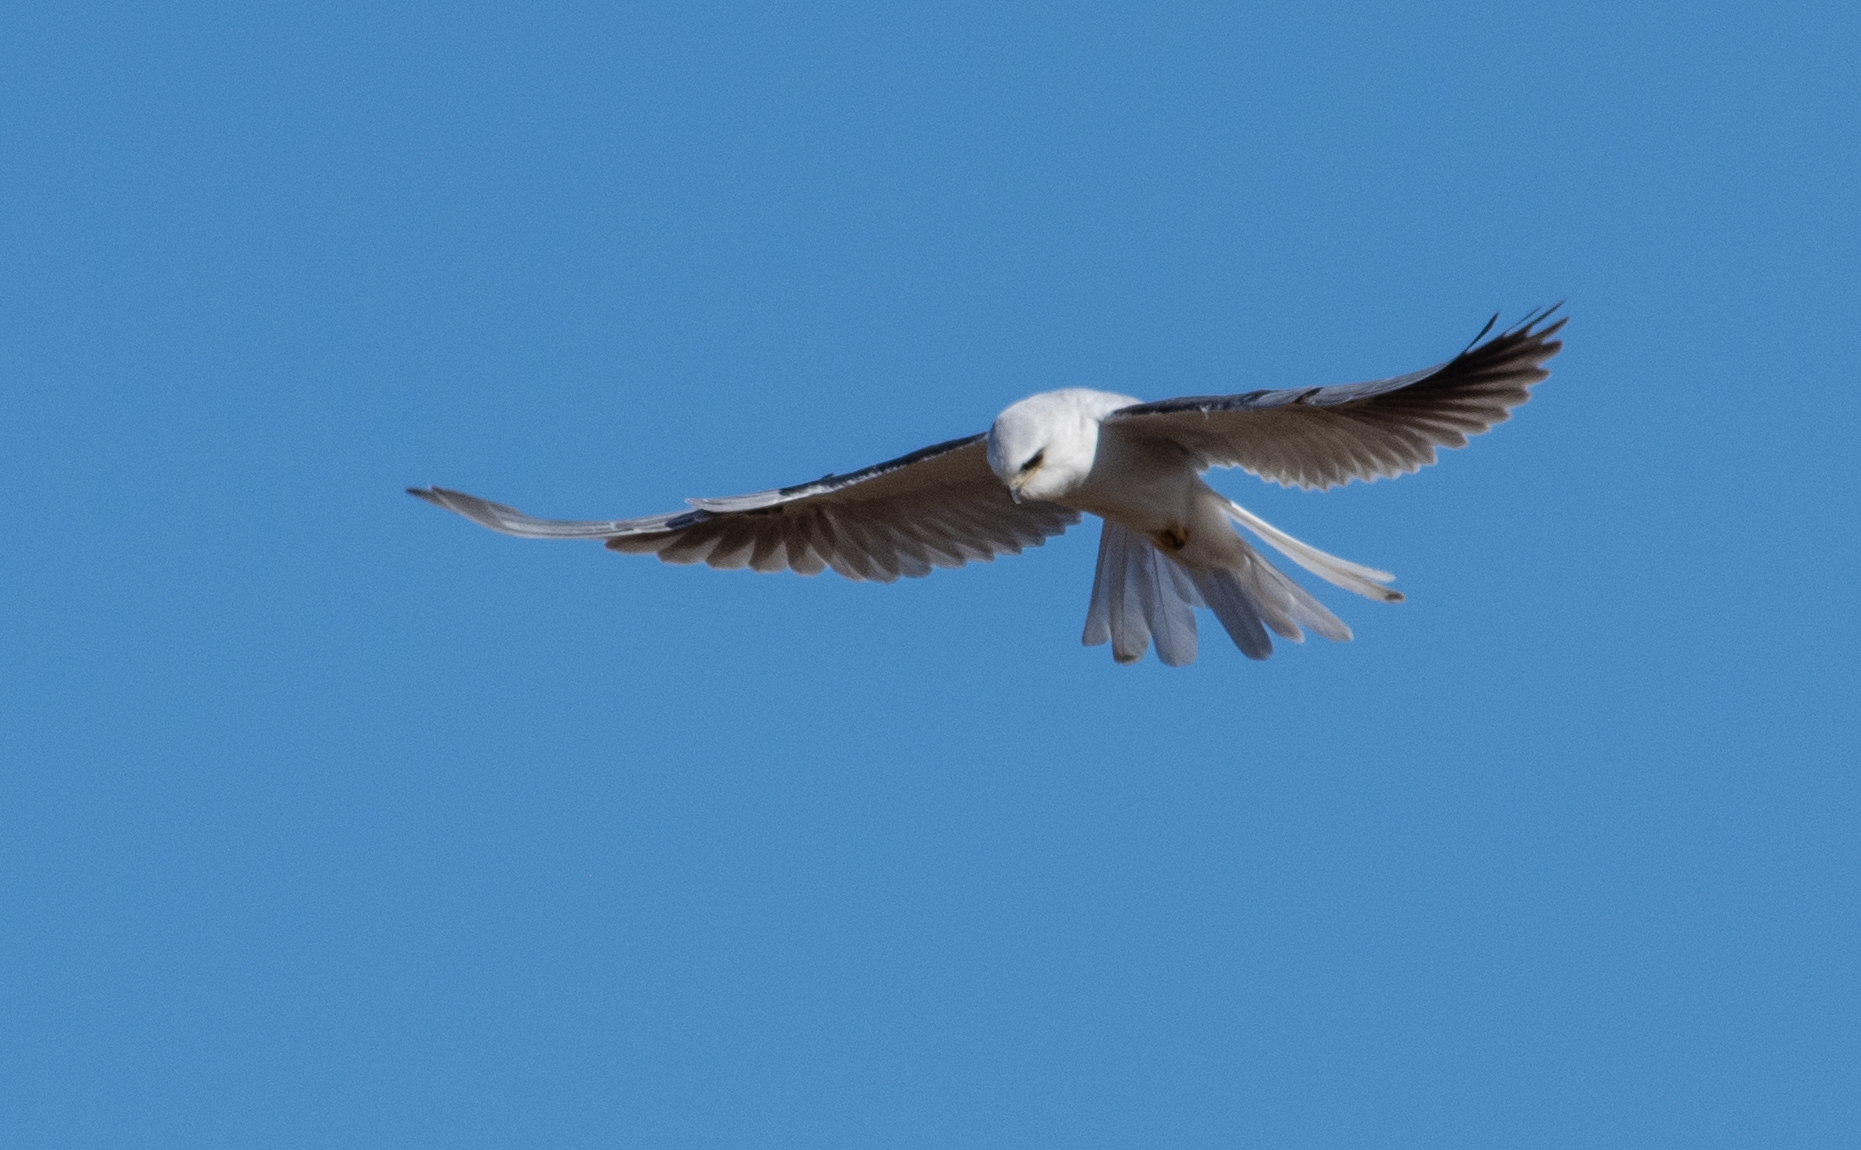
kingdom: Animalia
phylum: Chordata
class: Aves
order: Accipitriformes
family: Accipitridae
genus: Elanus
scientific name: Elanus leucurus
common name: White-tailed kite
